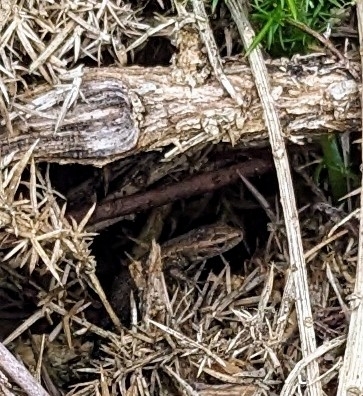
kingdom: Animalia
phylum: Chordata
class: Squamata
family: Lacertidae
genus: Zootoca
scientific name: Zootoca vivipara
